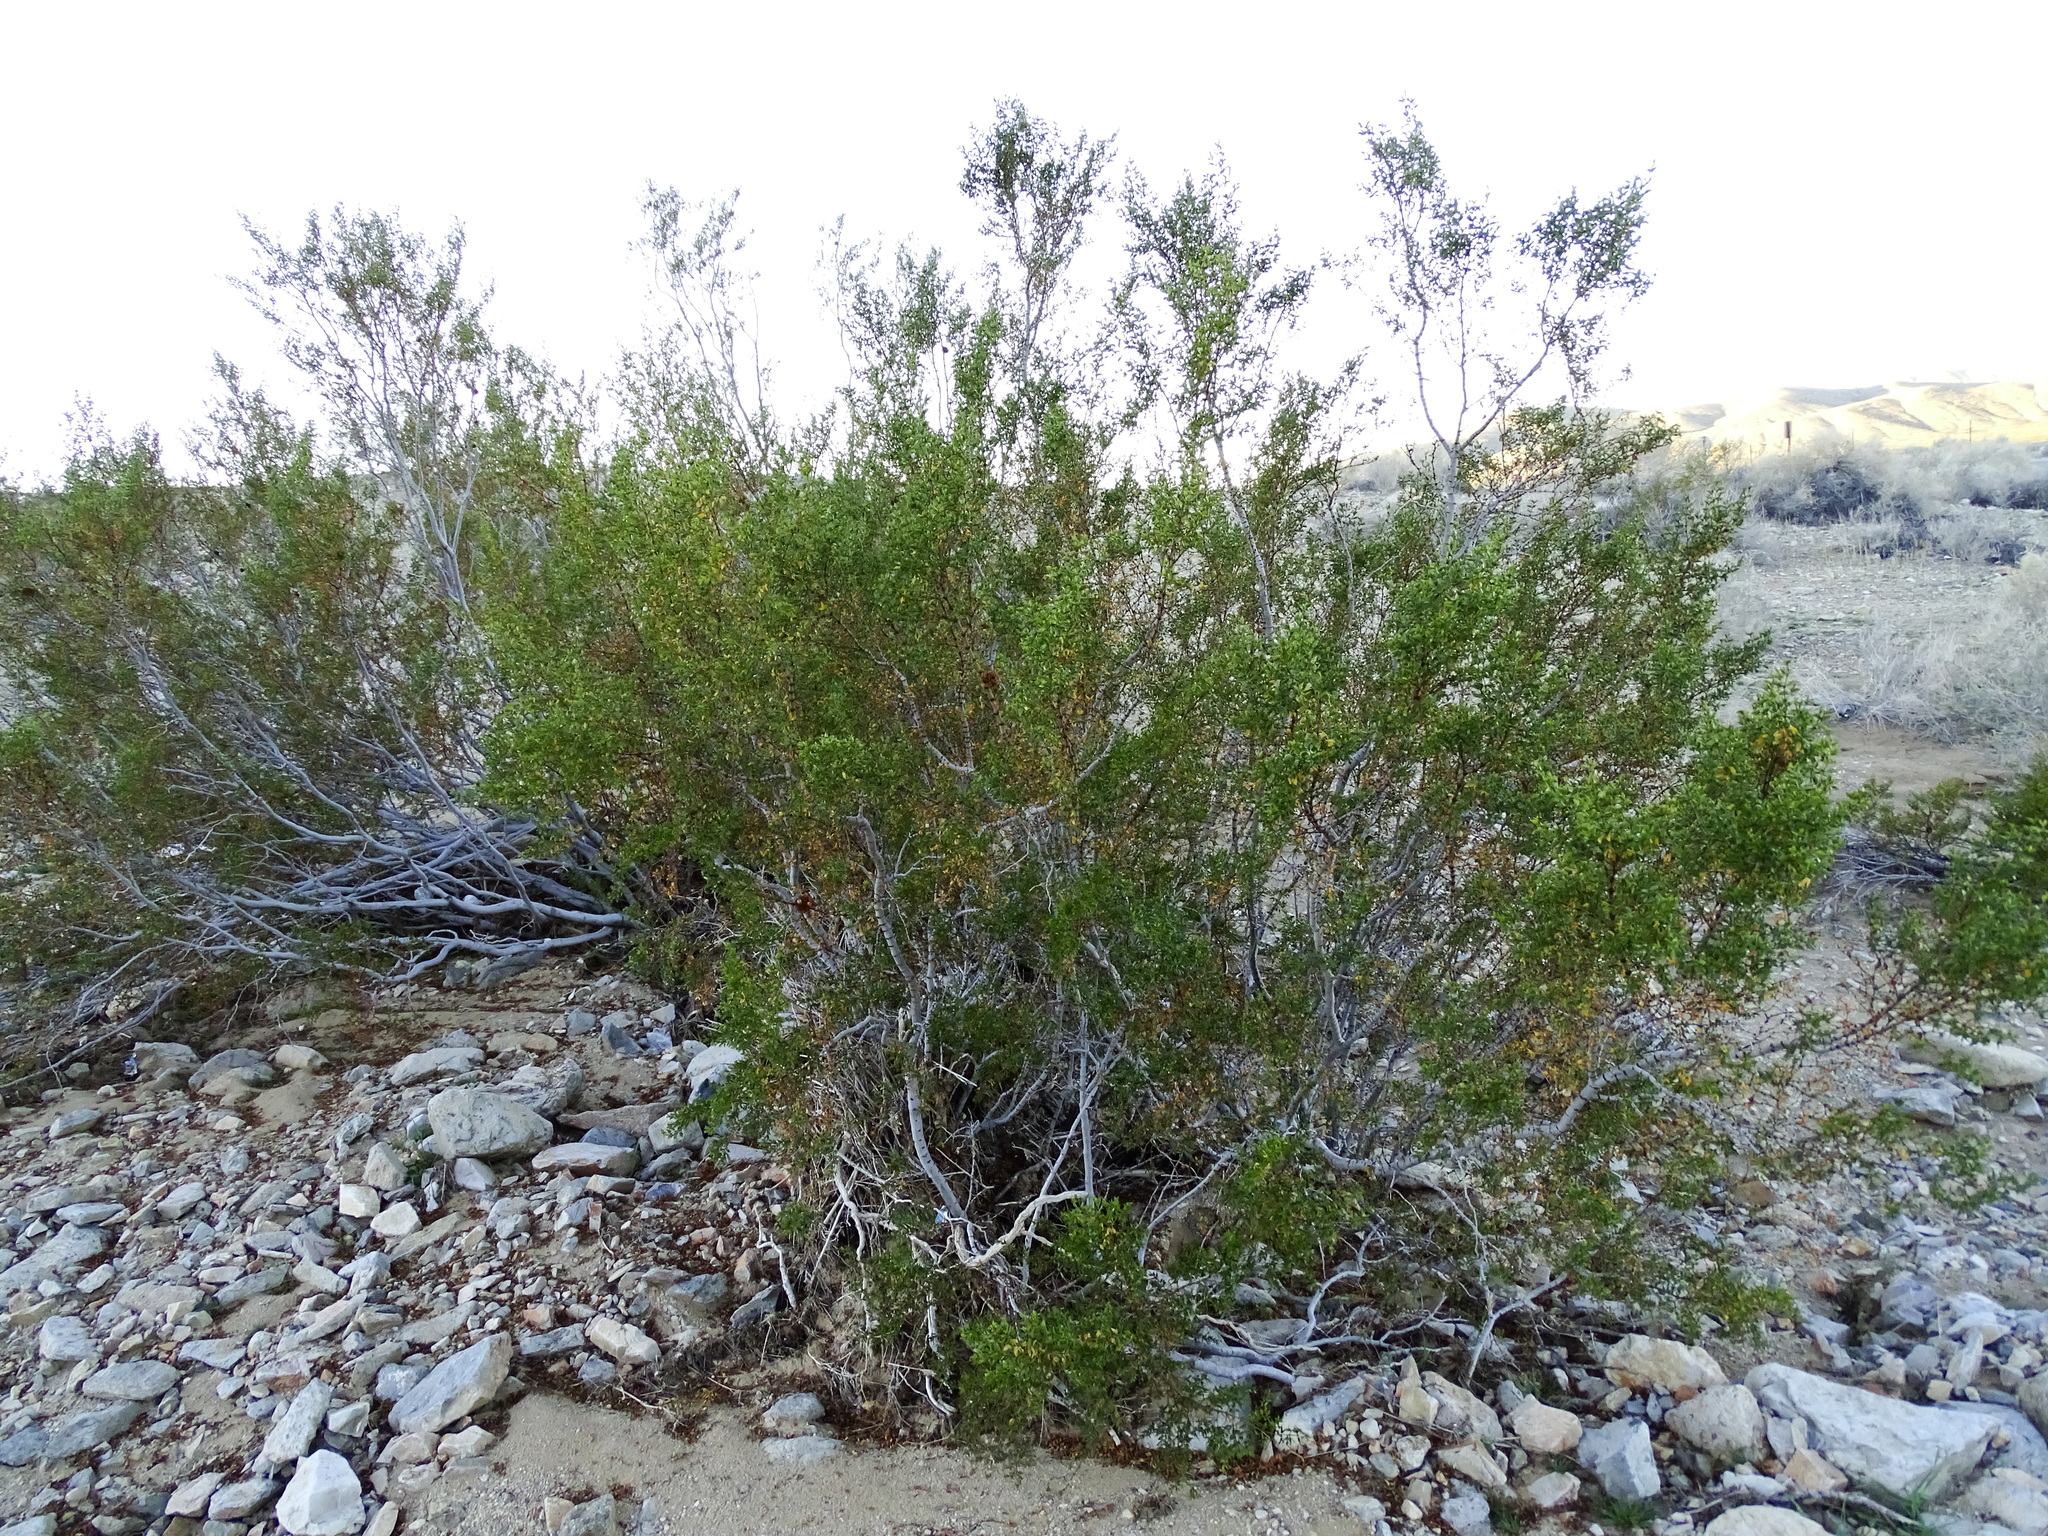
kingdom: Plantae
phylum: Tracheophyta
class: Magnoliopsida
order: Zygophyllales
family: Zygophyllaceae
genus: Larrea
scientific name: Larrea tridentata
